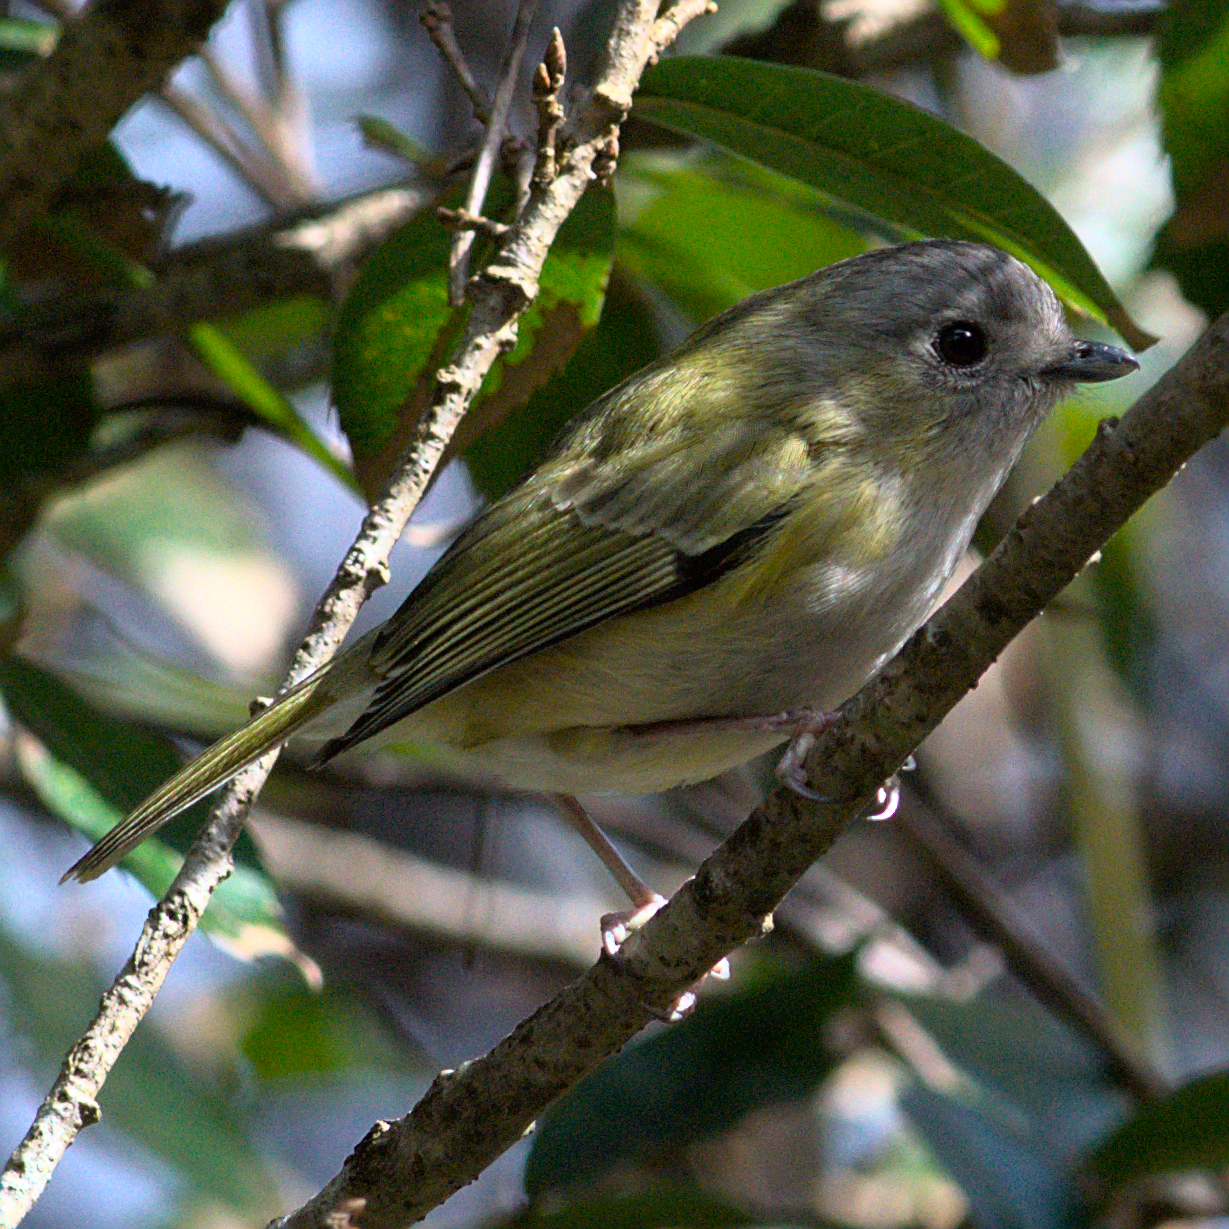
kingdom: Animalia
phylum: Chordata
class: Aves
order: Passeriformes
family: Vireonidae
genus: Pteruthius
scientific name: Pteruthius xanthochlorus
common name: Green shrike-babbler
